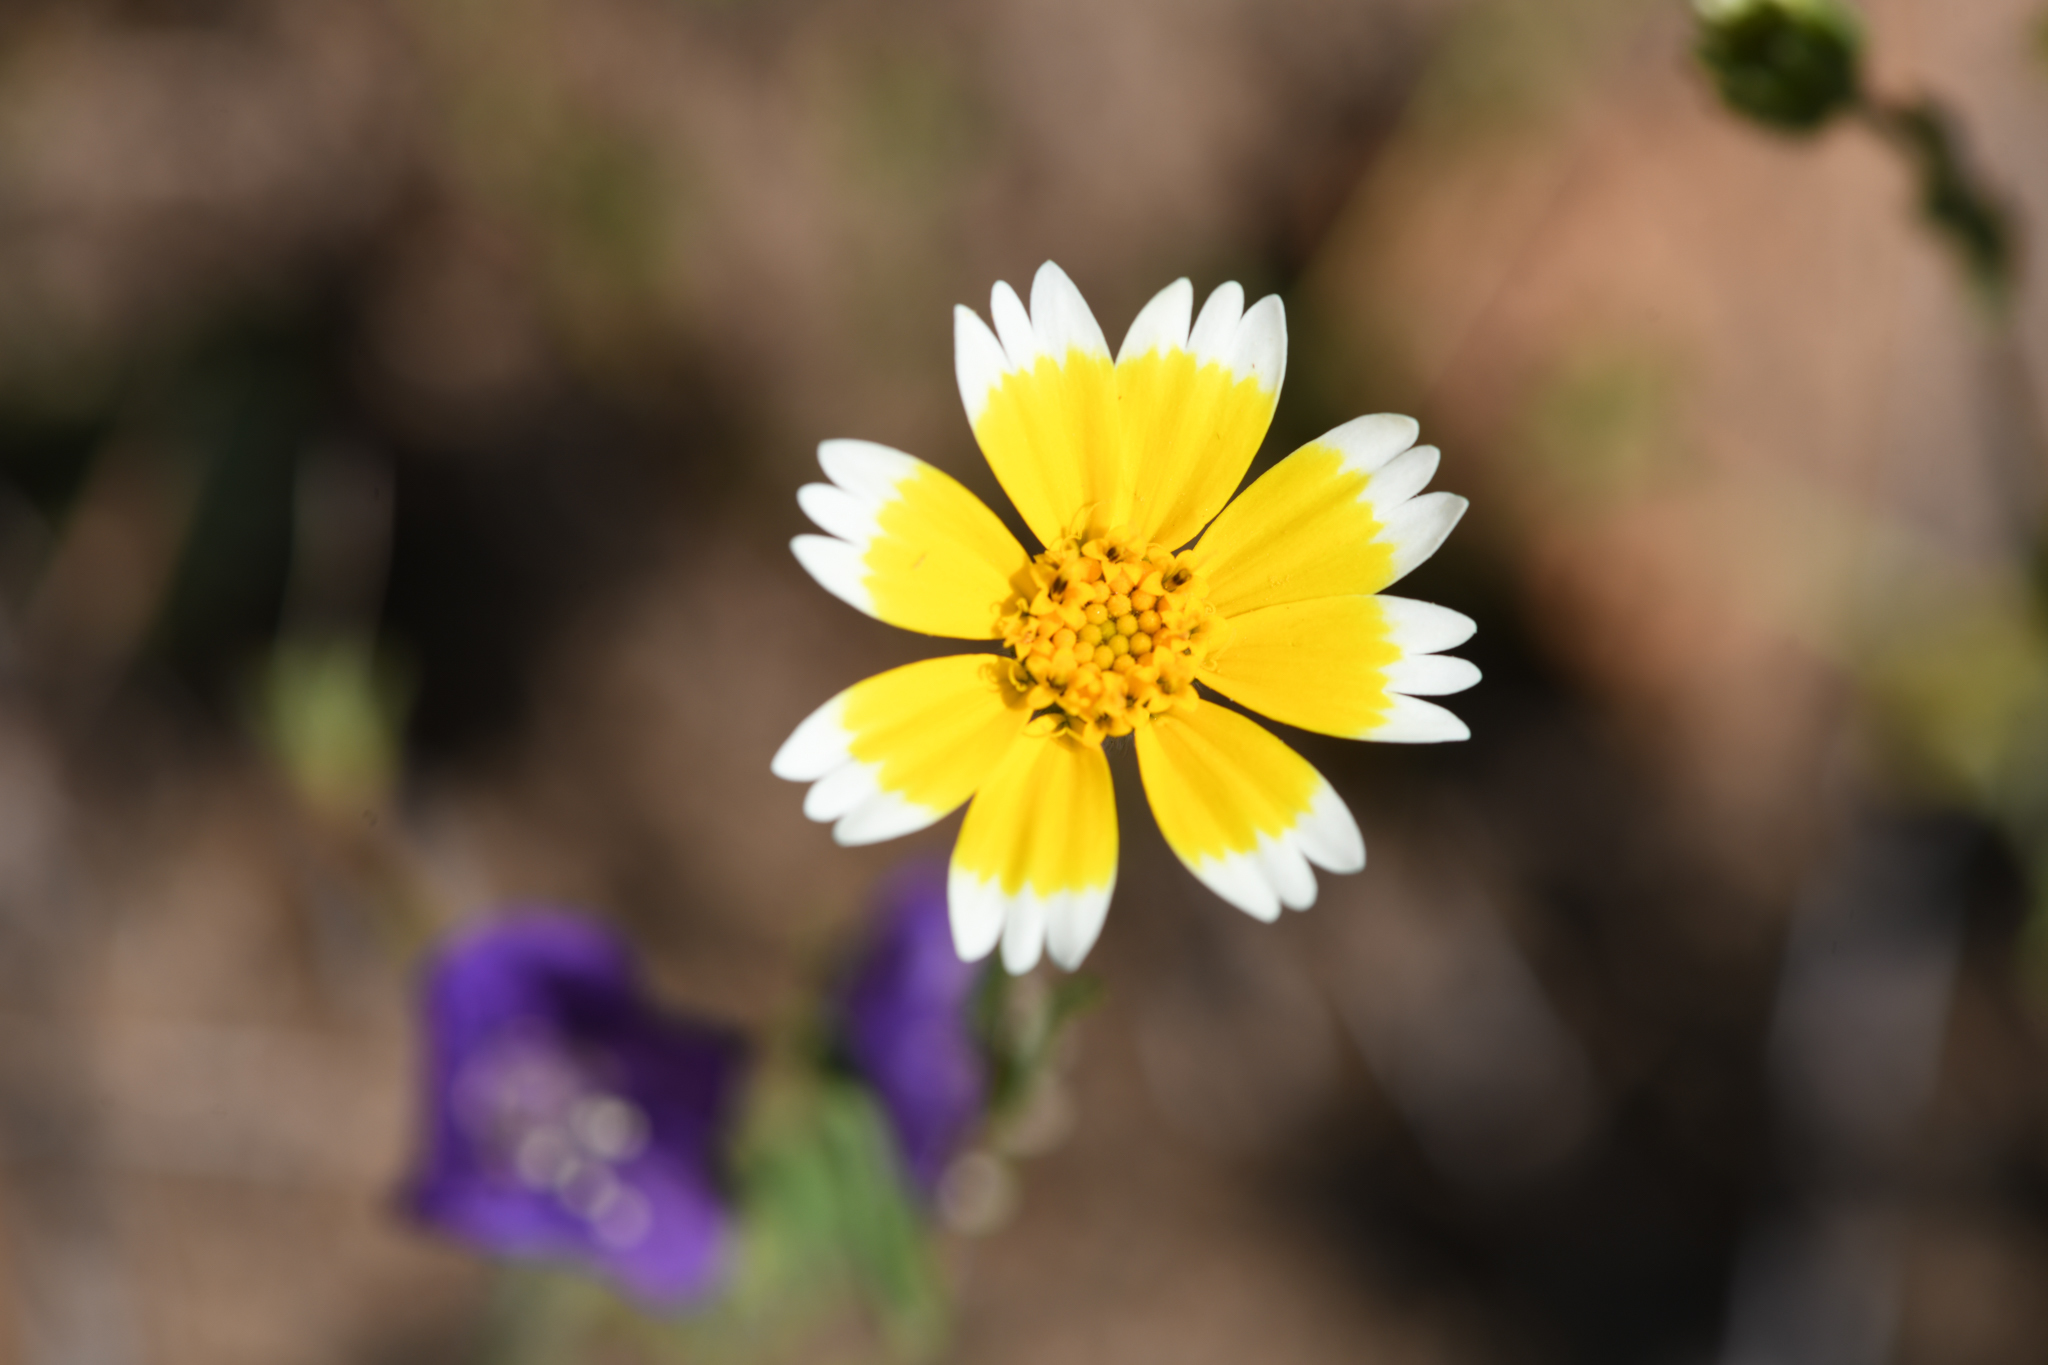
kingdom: Plantae
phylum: Tracheophyta
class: Magnoliopsida
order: Asterales
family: Asteraceae
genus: Layia
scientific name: Layia platyglossa
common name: Tidy-tips
